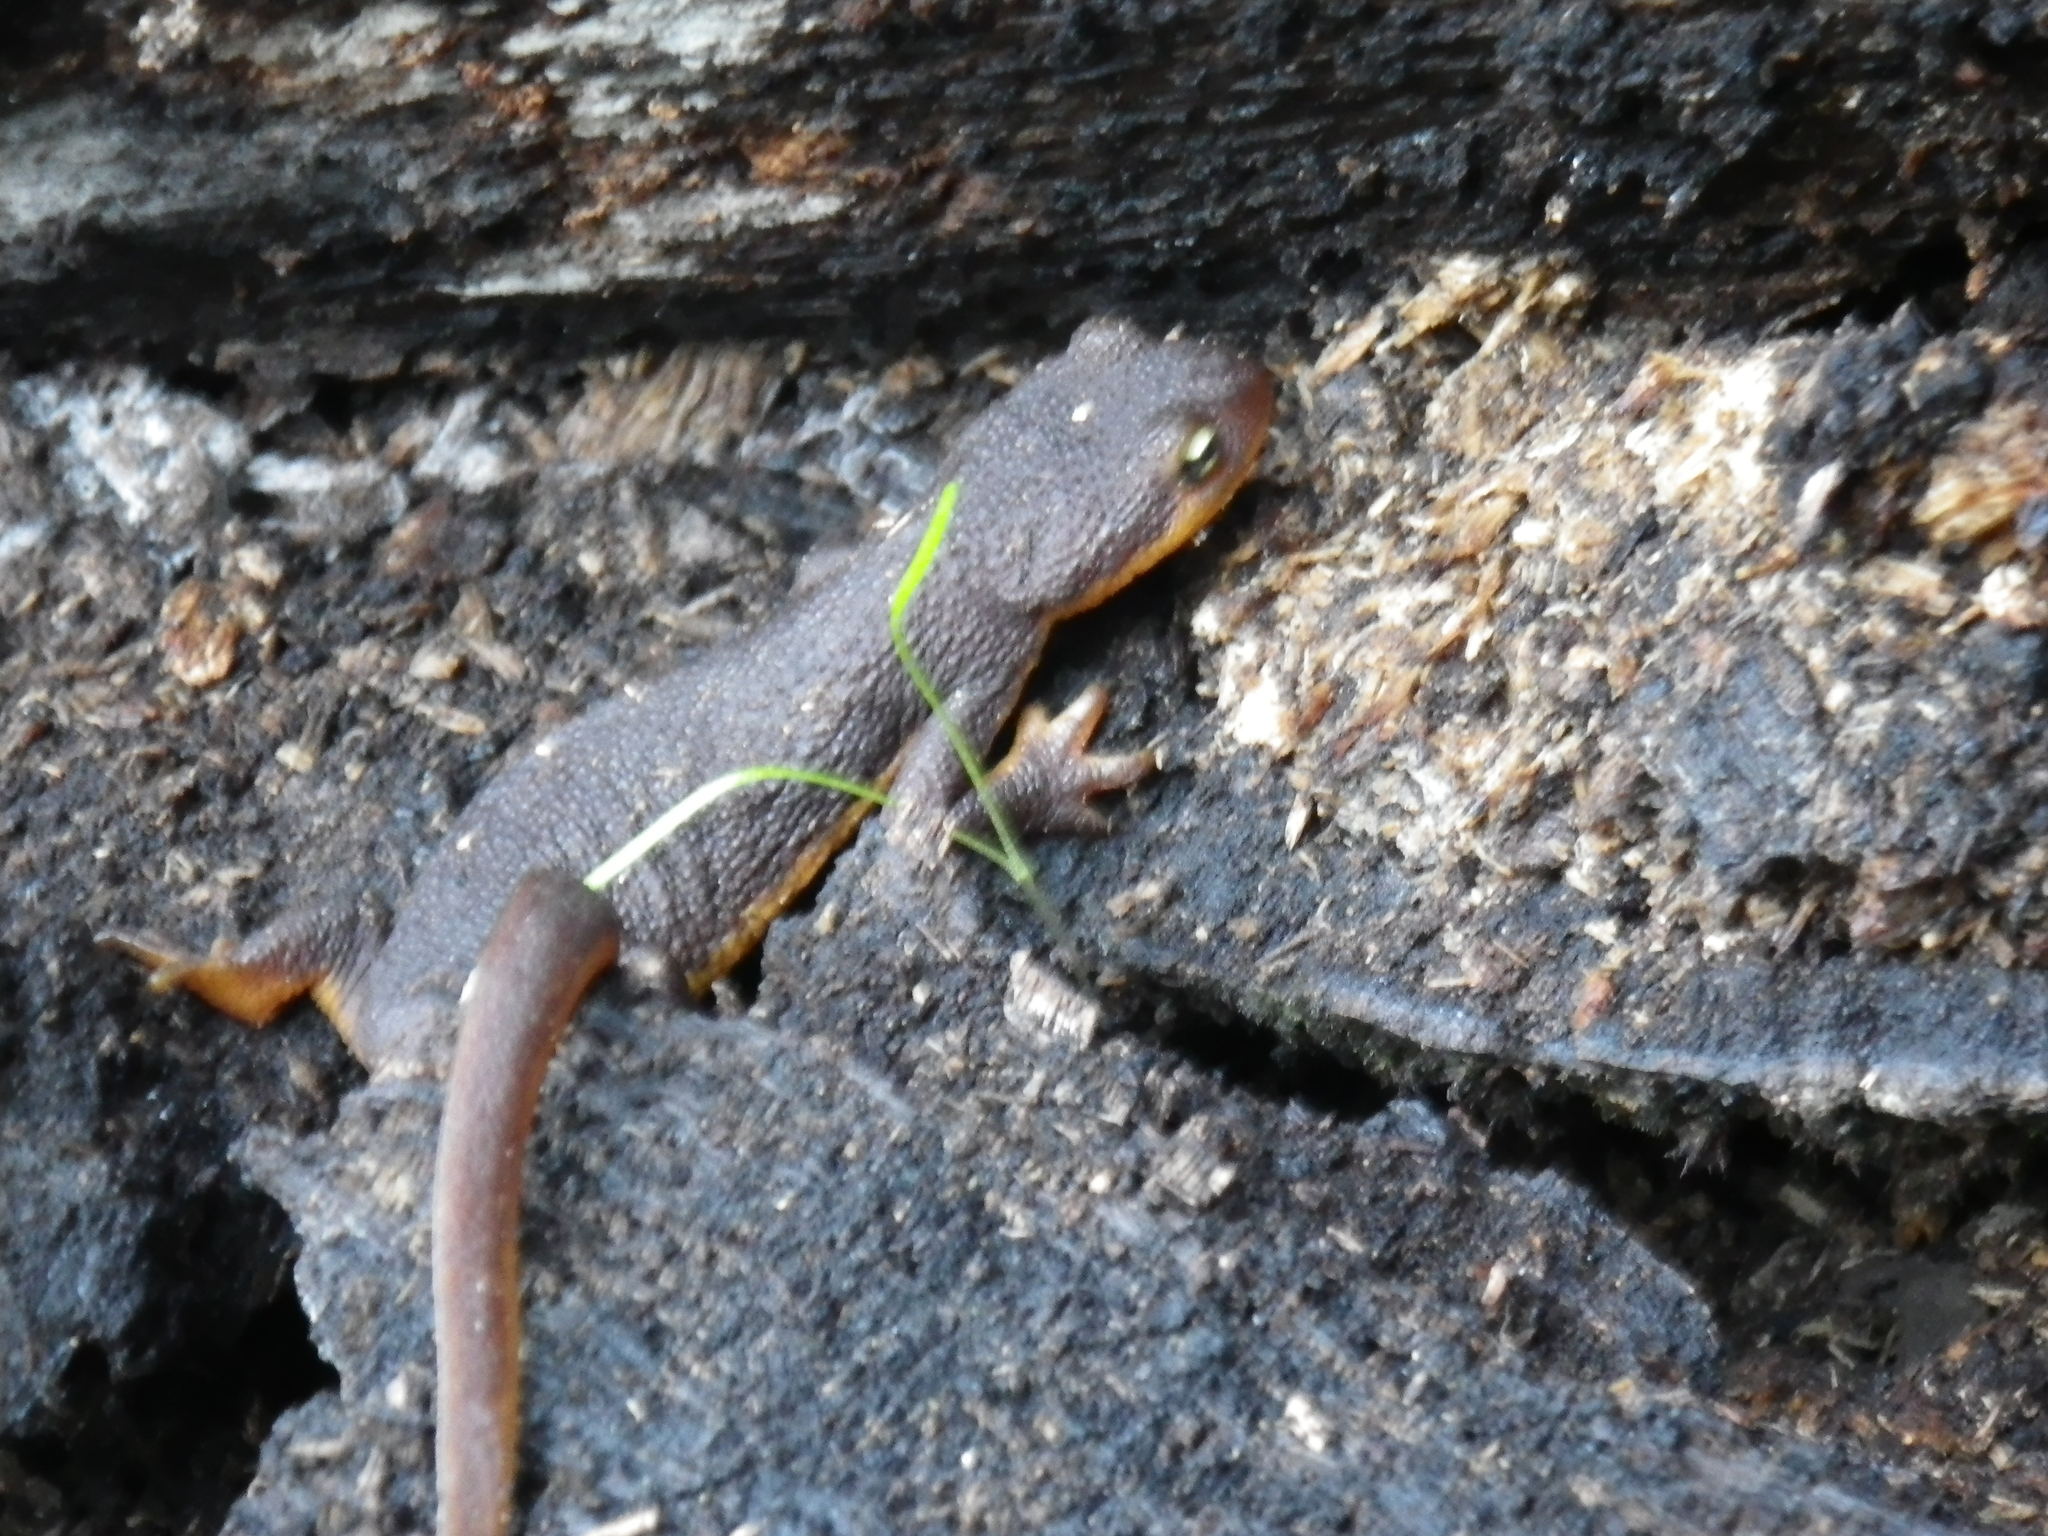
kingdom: Animalia
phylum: Chordata
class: Amphibia
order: Caudata
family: Salamandridae
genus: Taricha
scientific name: Taricha torosa
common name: California newt
